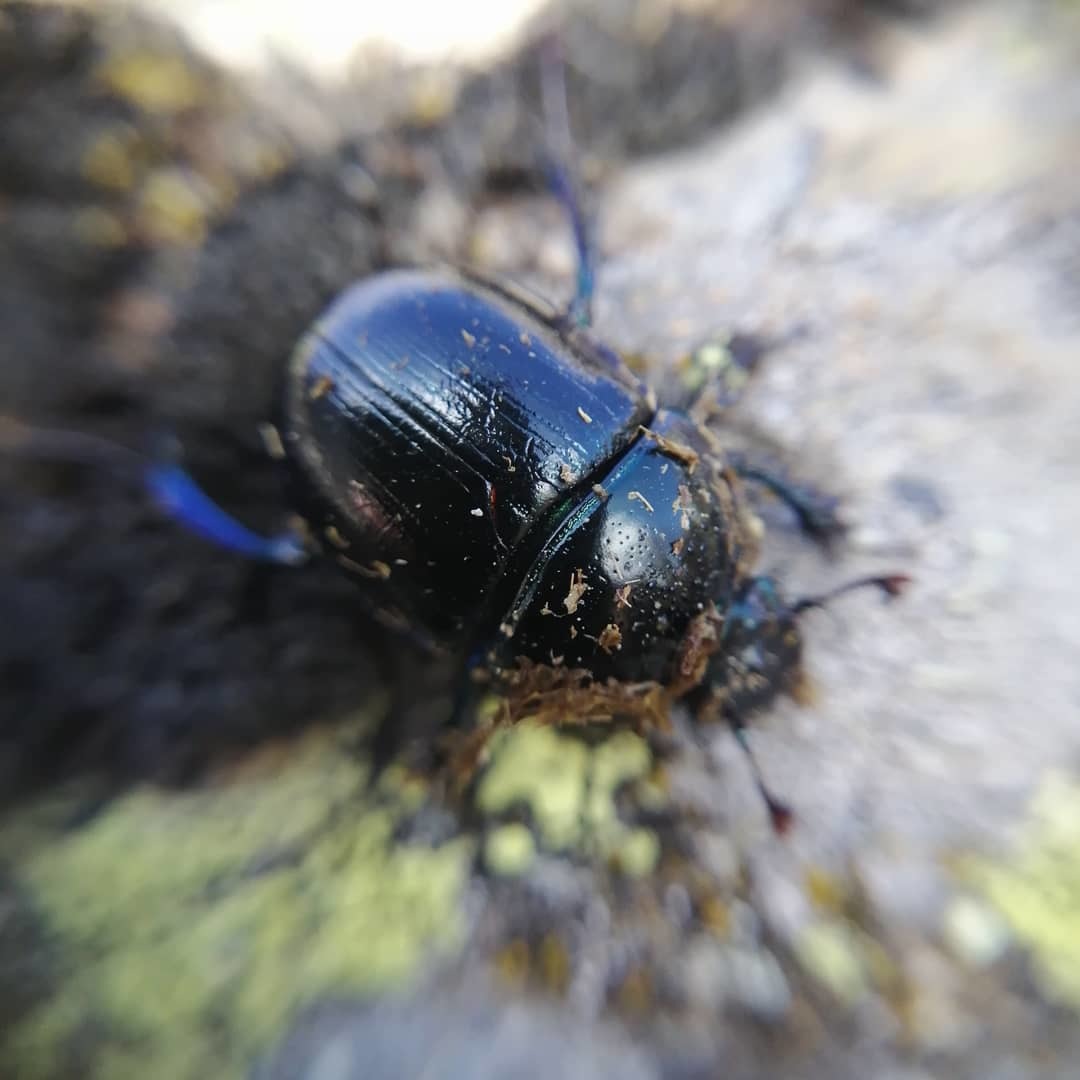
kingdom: Animalia
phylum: Arthropoda
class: Insecta
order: Coleoptera
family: Geotrupidae
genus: Anoplotrupes
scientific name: Anoplotrupes stercorosus
